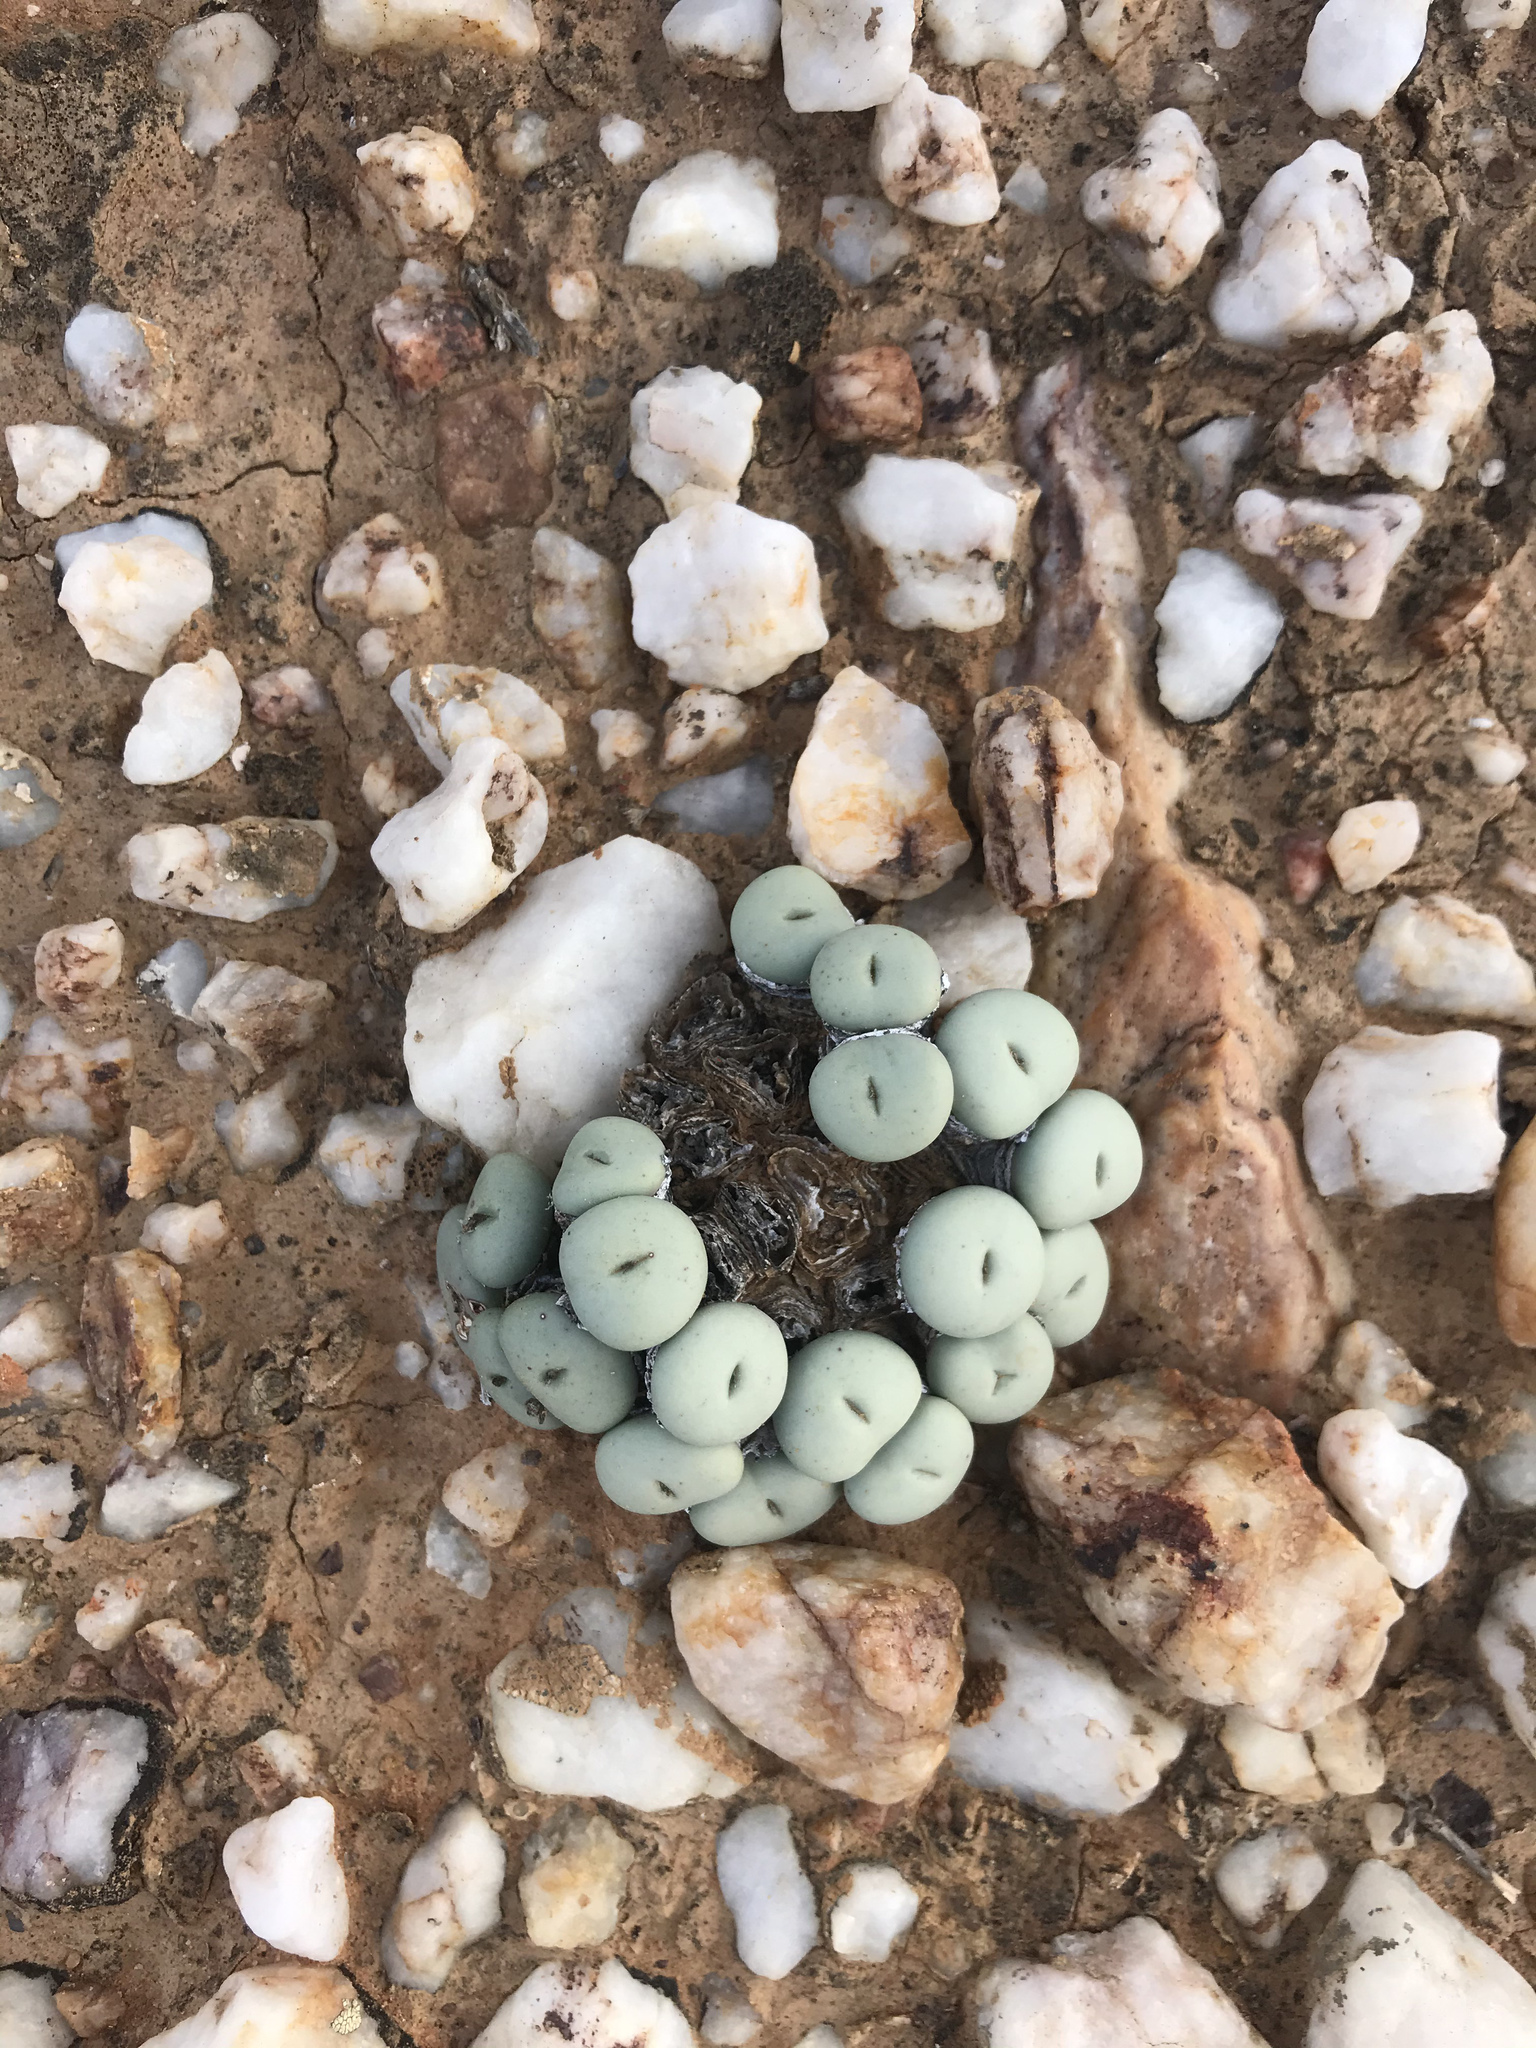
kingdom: Plantae
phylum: Tracheophyta
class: Magnoliopsida
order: Caryophyllales
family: Aizoaceae
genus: Conophytum
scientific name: Conophytum minutum
